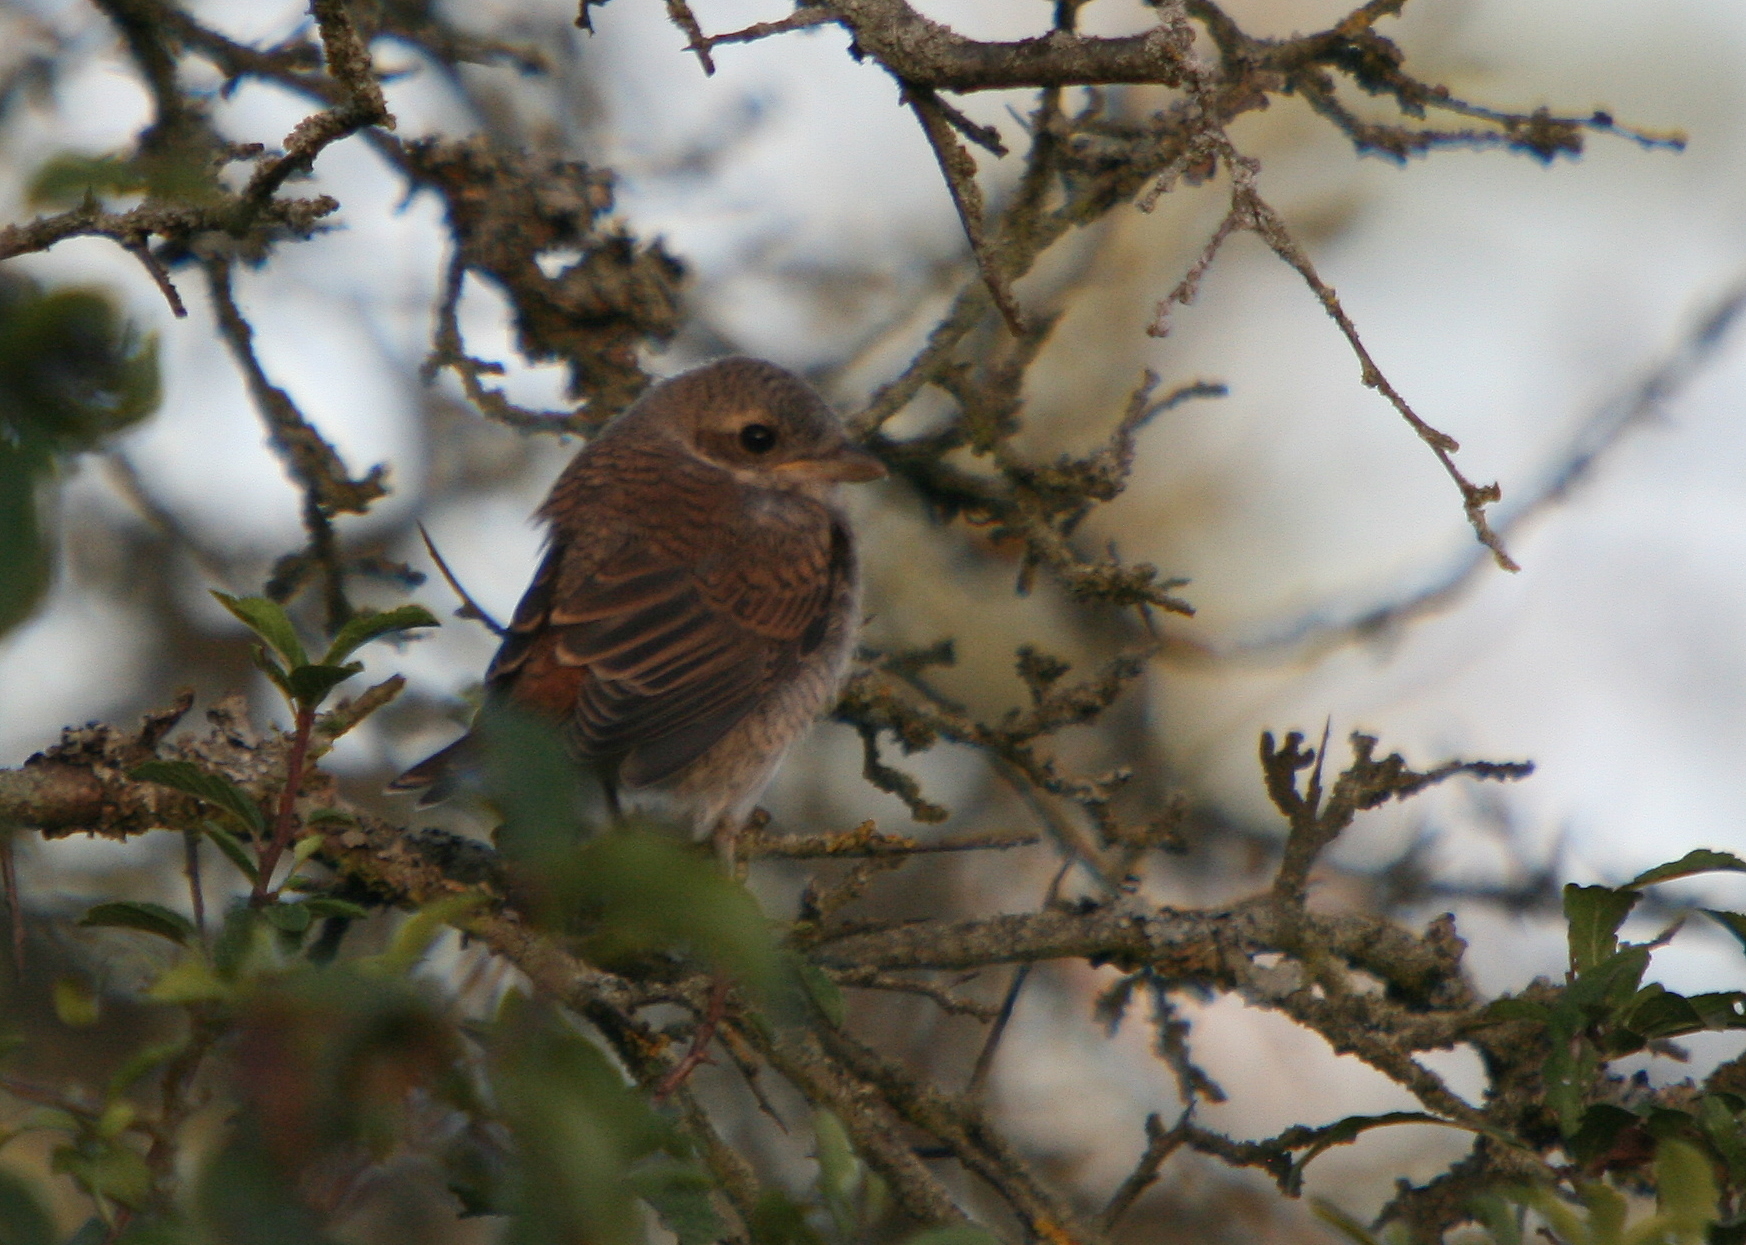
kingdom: Animalia
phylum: Chordata
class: Aves
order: Passeriformes
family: Laniidae
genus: Lanius
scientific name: Lanius collurio
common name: Red-backed shrike
